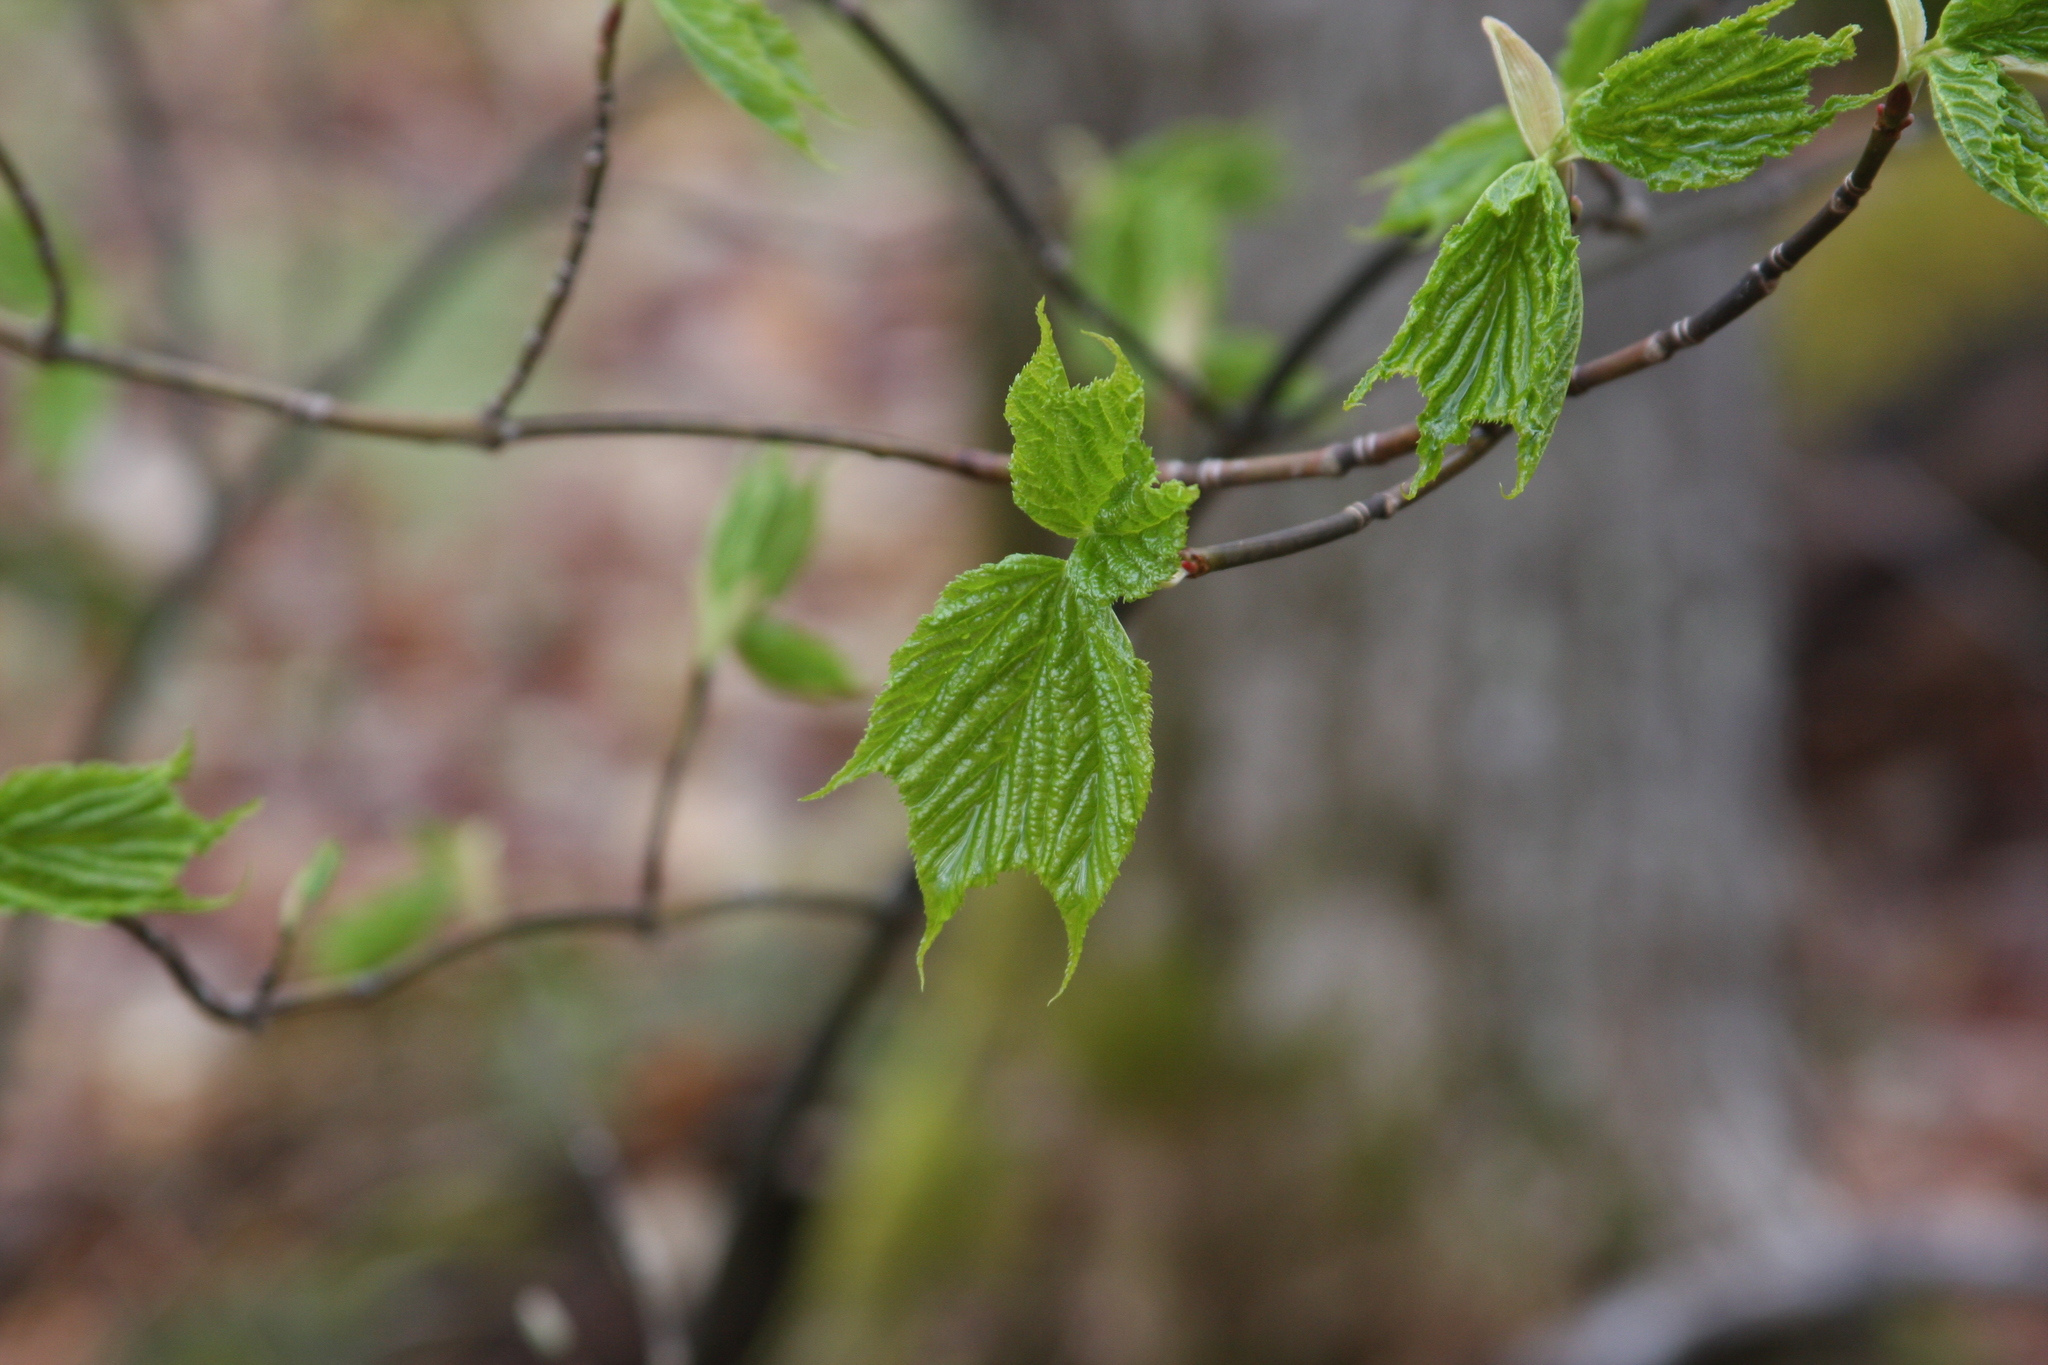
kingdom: Plantae
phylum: Tracheophyta
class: Magnoliopsida
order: Sapindales
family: Sapindaceae
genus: Acer
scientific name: Acer pensylvanicum
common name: Moosewood
